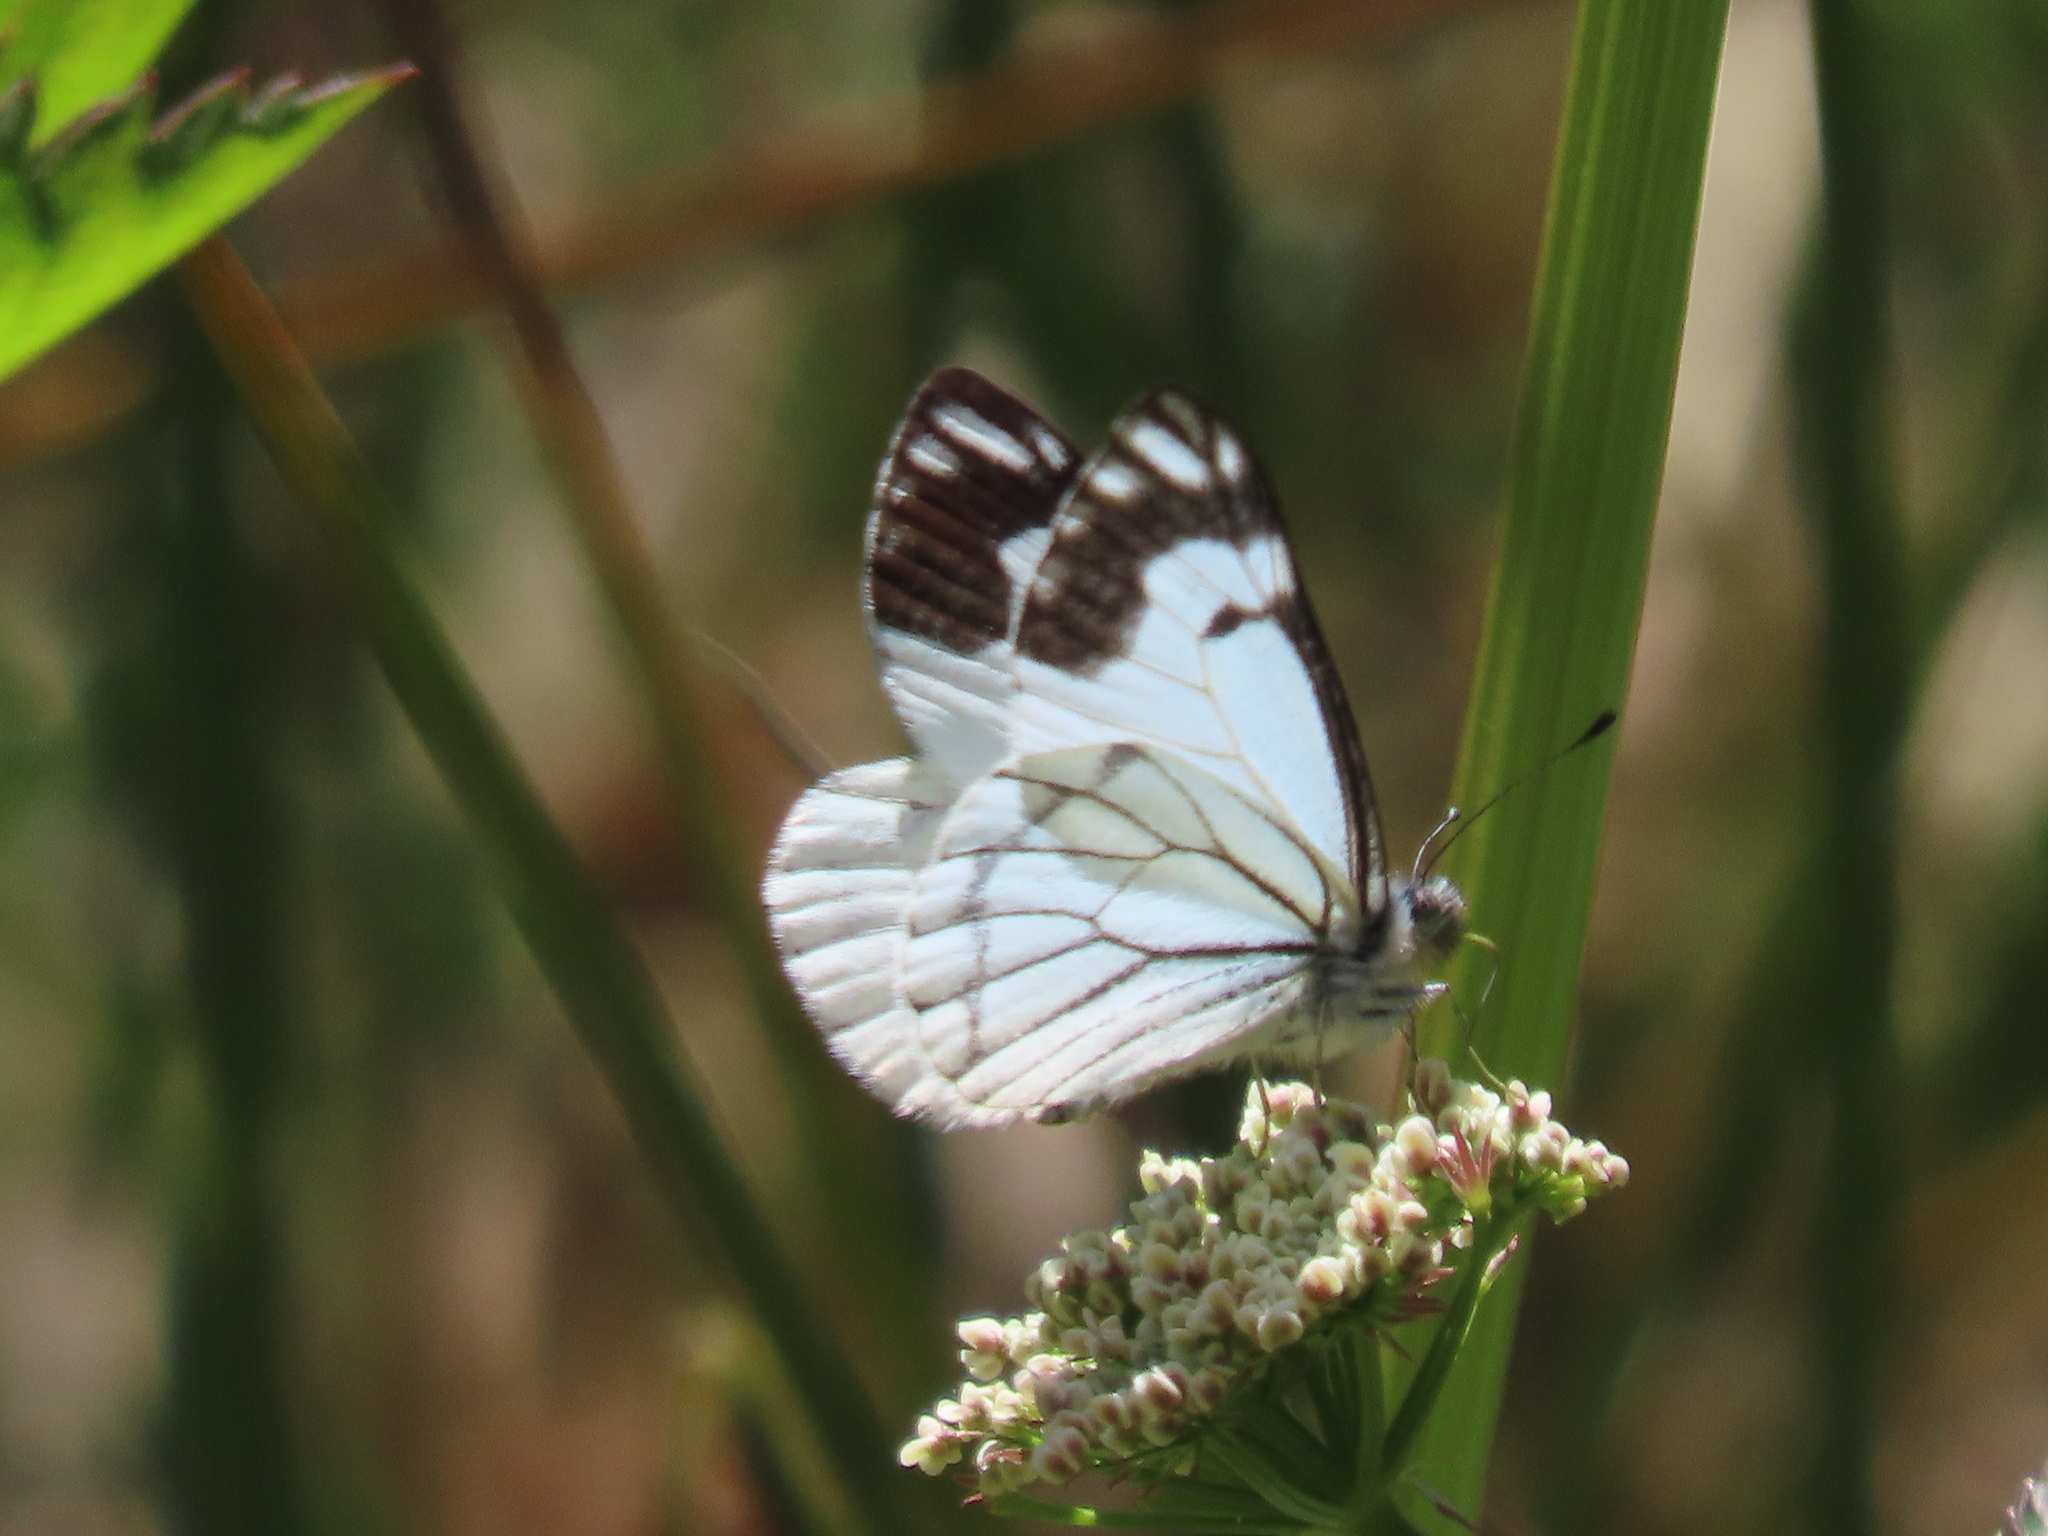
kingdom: Animalia
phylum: Arthropoda
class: Insecta
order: Lepidoptera
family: Pieridae
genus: Neophasia
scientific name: Neophasia menapia
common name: Pine white
